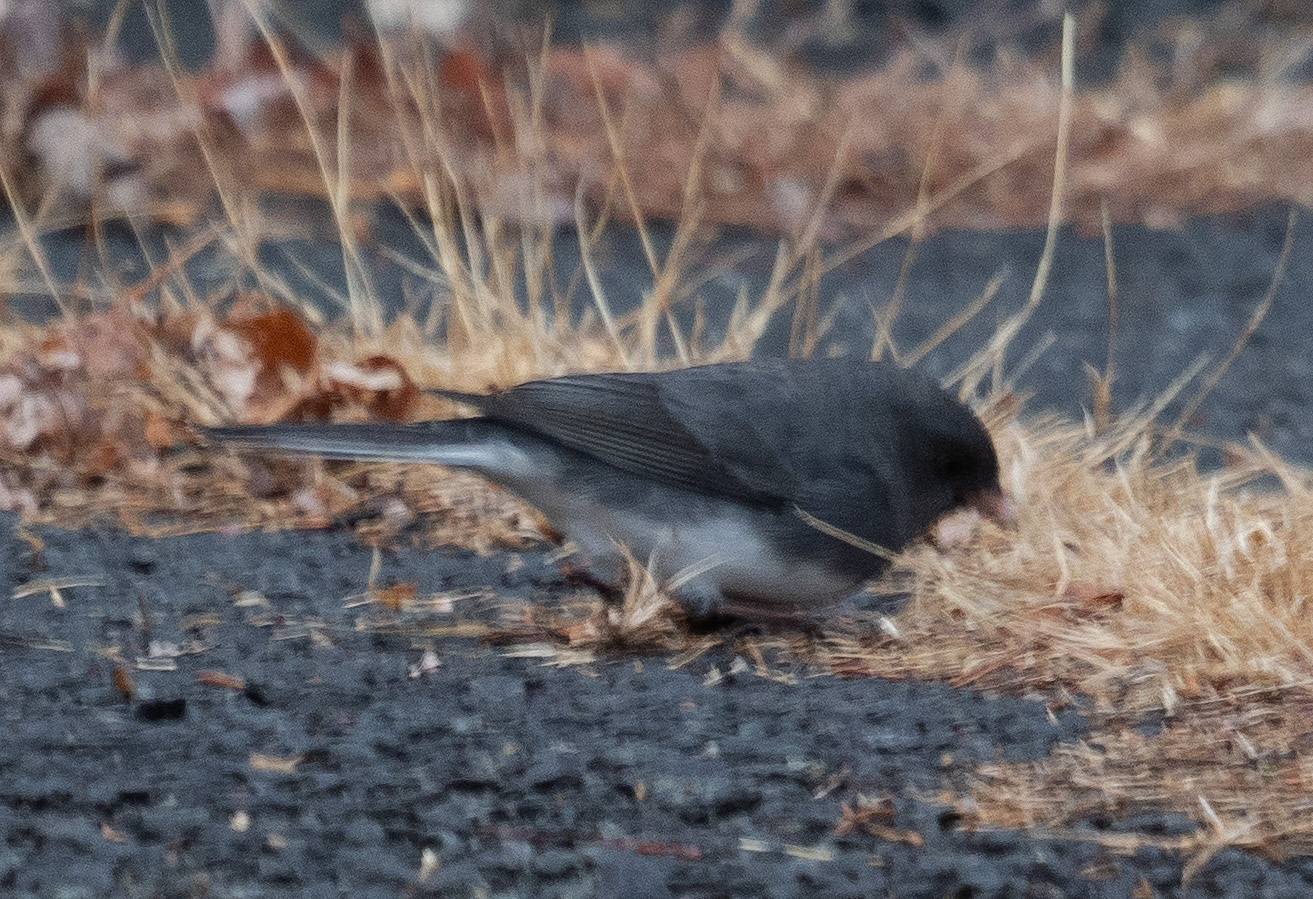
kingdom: Animalia
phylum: Chordata
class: Aves
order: Passeriformes
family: Passerellidae
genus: Junco
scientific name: Junco hyemalis
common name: Dark-eyed junco
